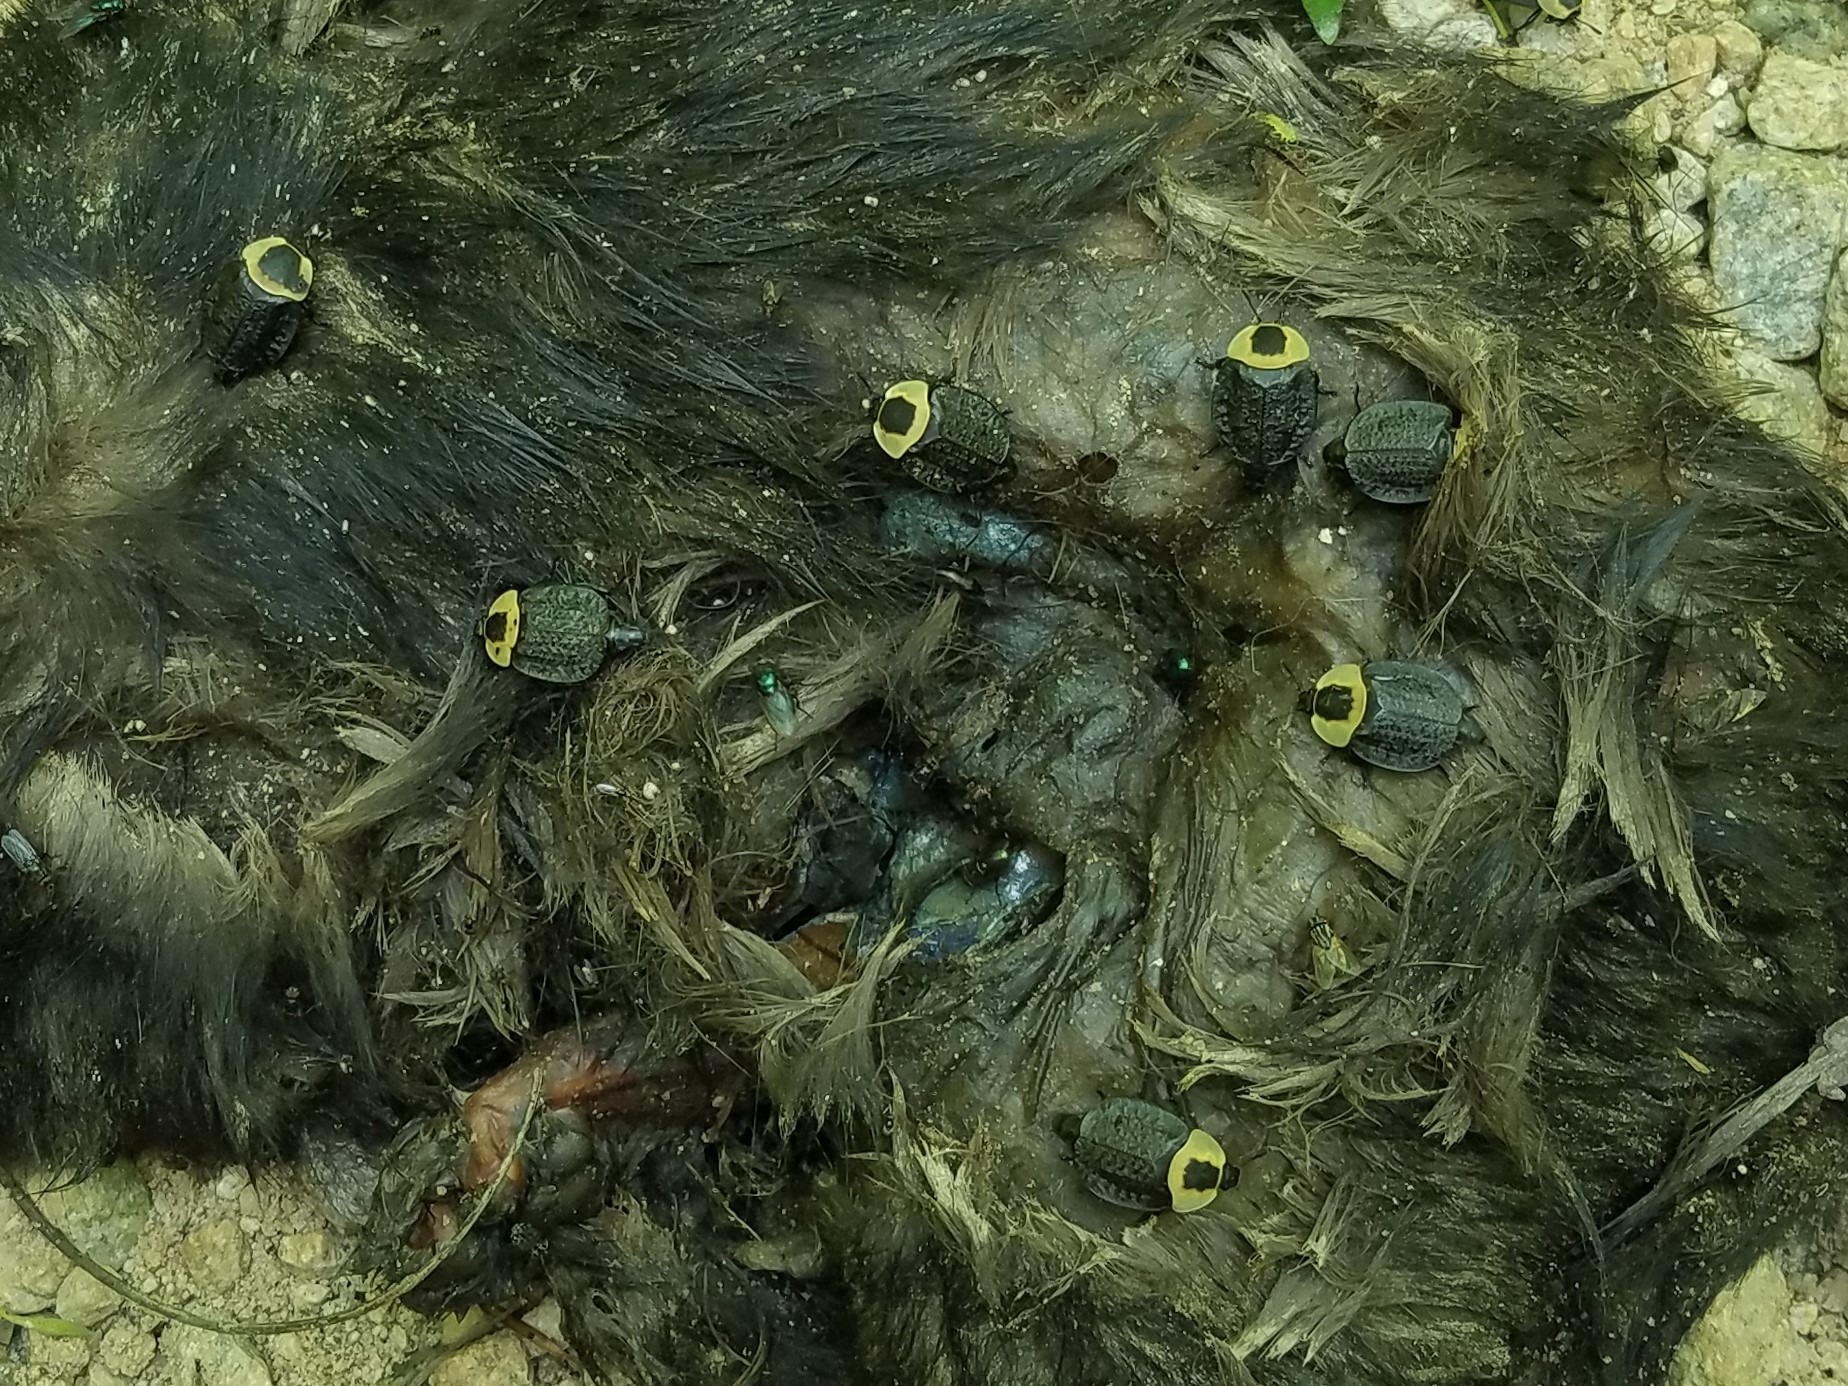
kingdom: Animalia
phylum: Arthropoda
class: Insecta
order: Coleoptera
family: Staphylinidae
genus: Necrophila
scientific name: Necrophila americana
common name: American carrion beetle
